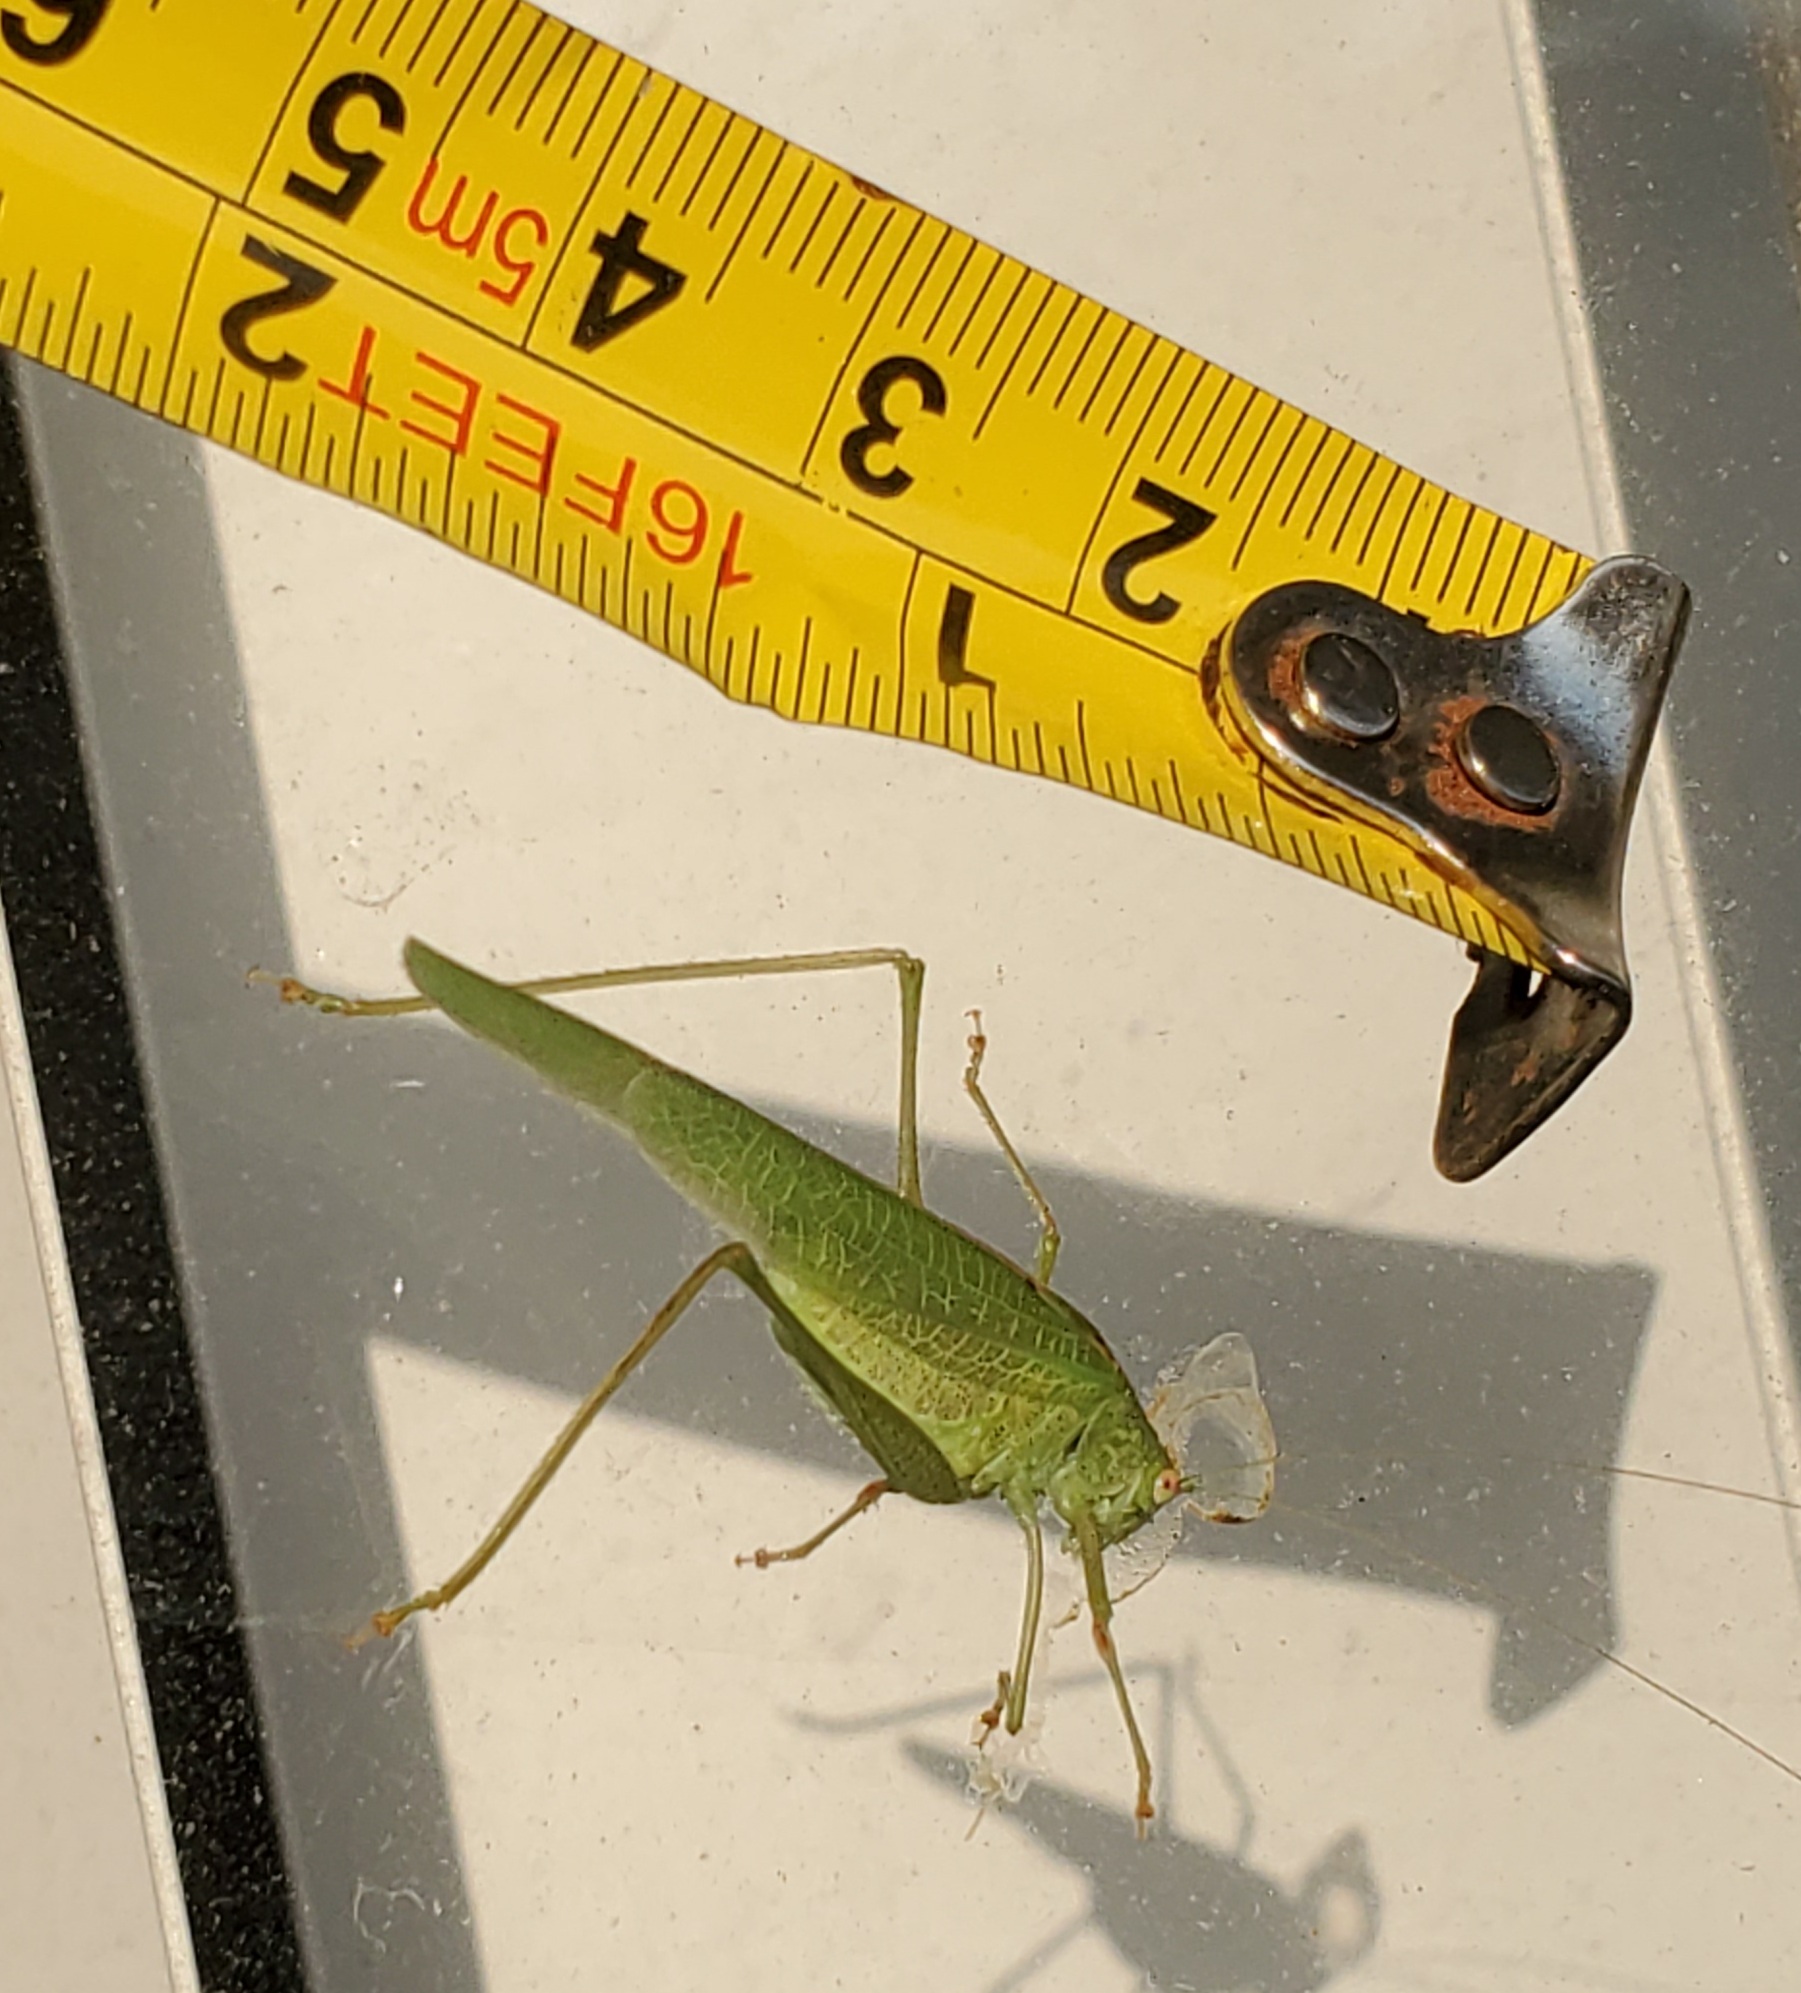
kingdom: Animalia
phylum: Arthropoda
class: Insecta
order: Orthoptera
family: Tettigoniidae
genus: Phaneroptera
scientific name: Phaneroptera nana
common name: Southern sickle bush-cricket
